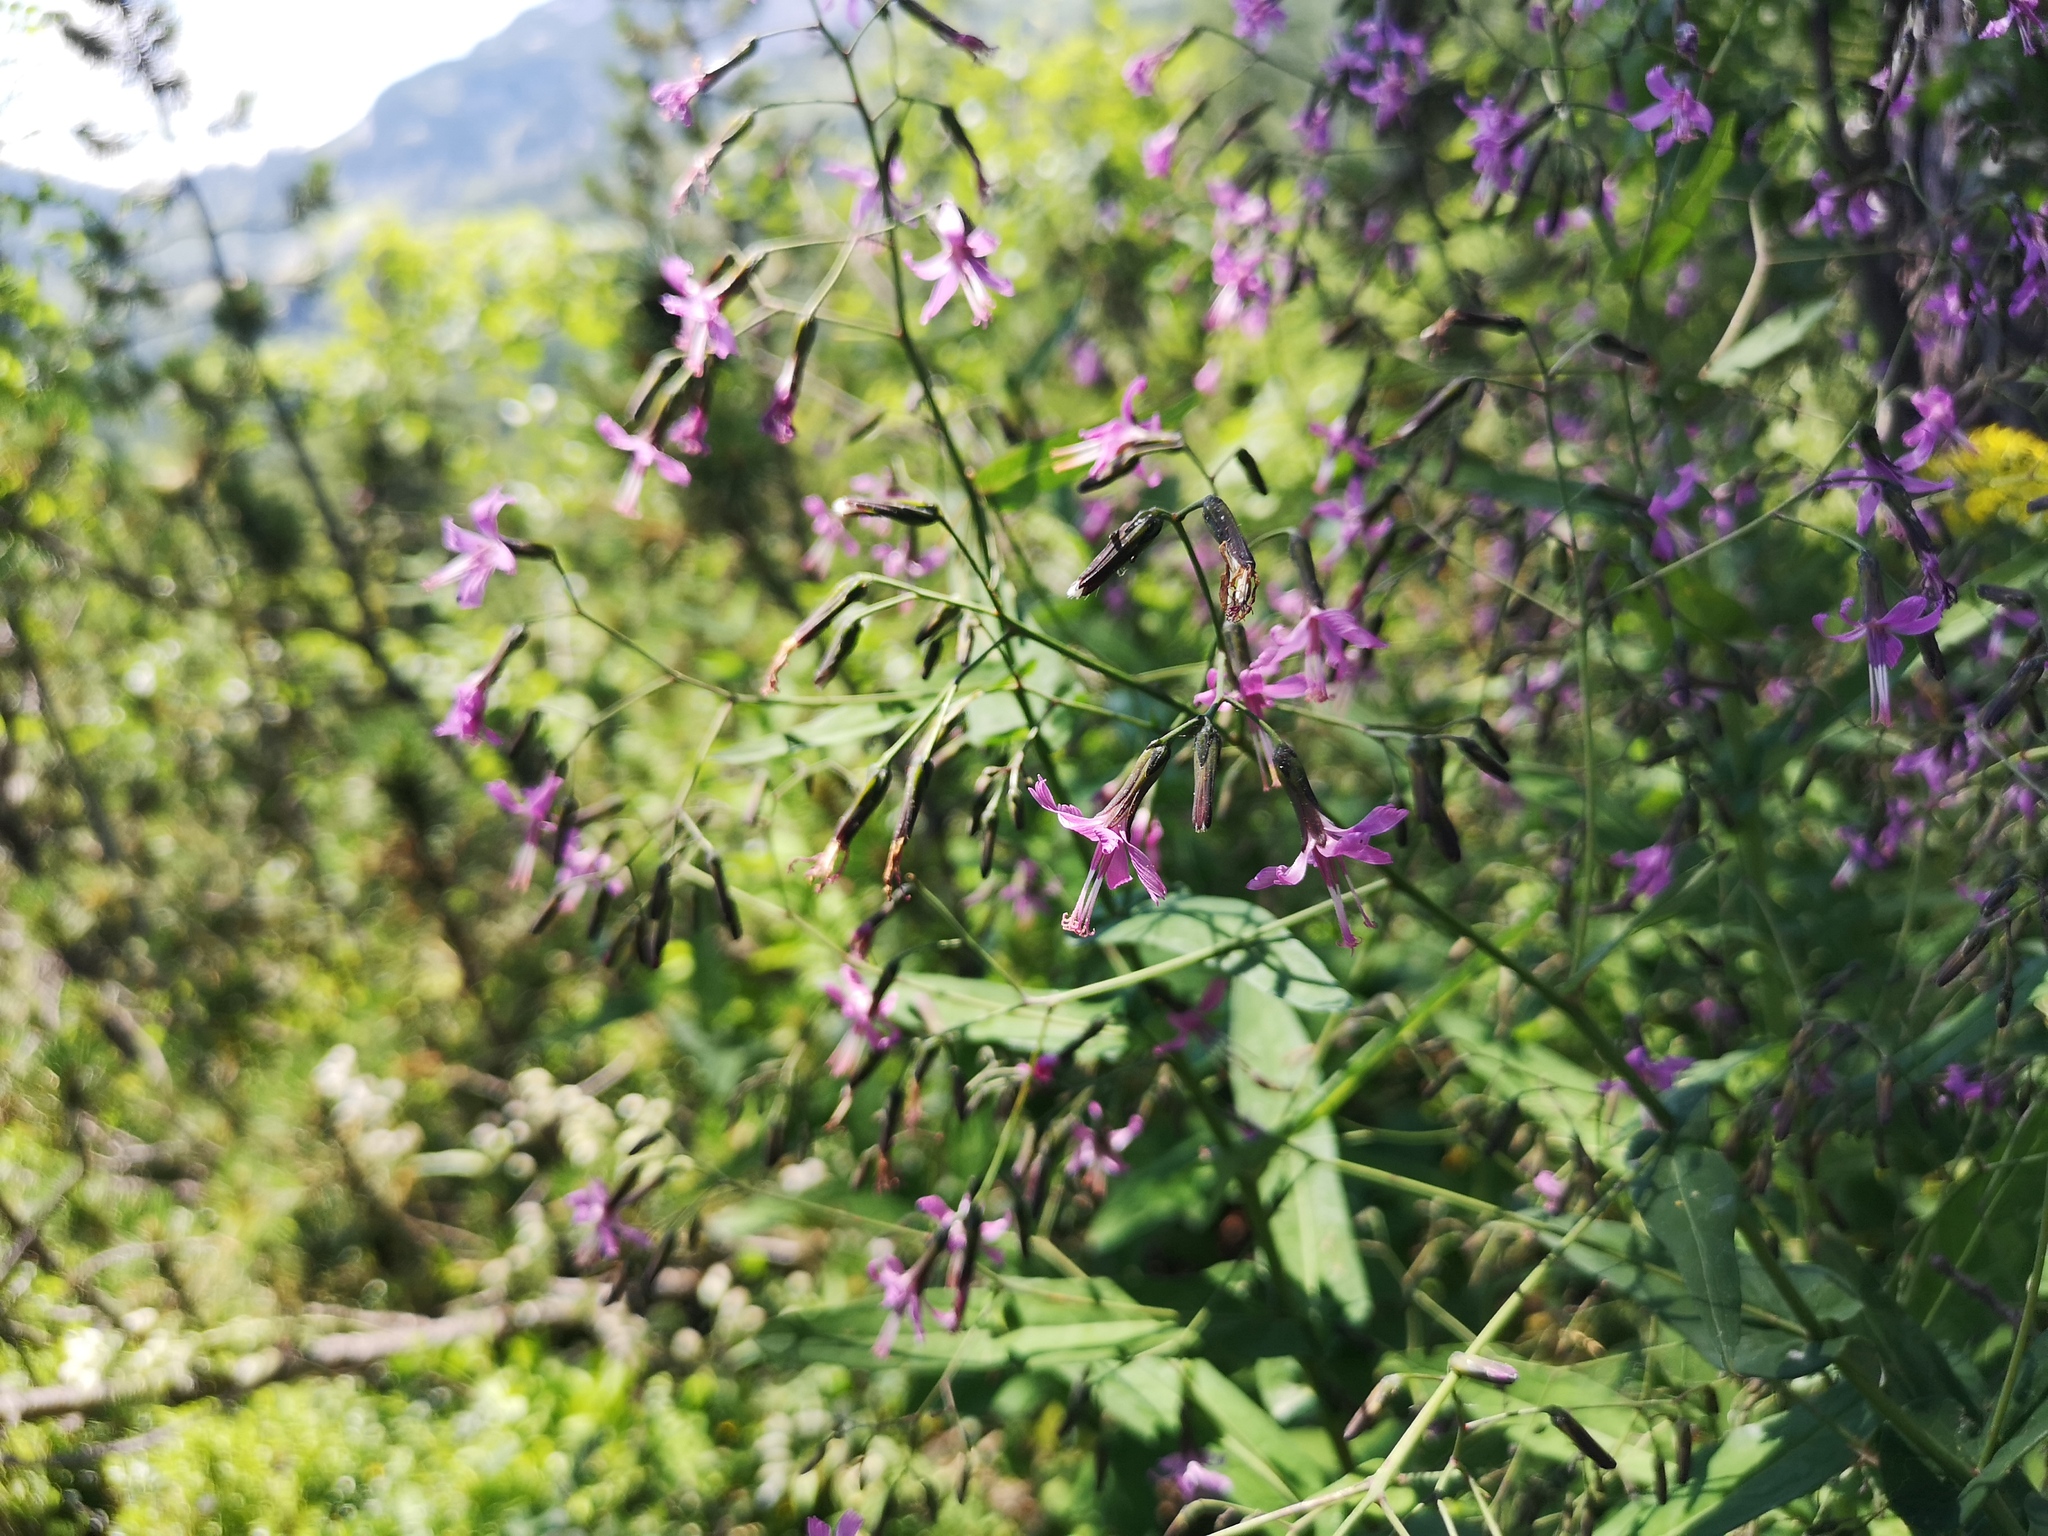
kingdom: Plantae
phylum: Tracheophyta
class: Magnoliopsida
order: Asterales
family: Asteraceae
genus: Prenanthes
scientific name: Prenanthes purpurea
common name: Purple lettuce
